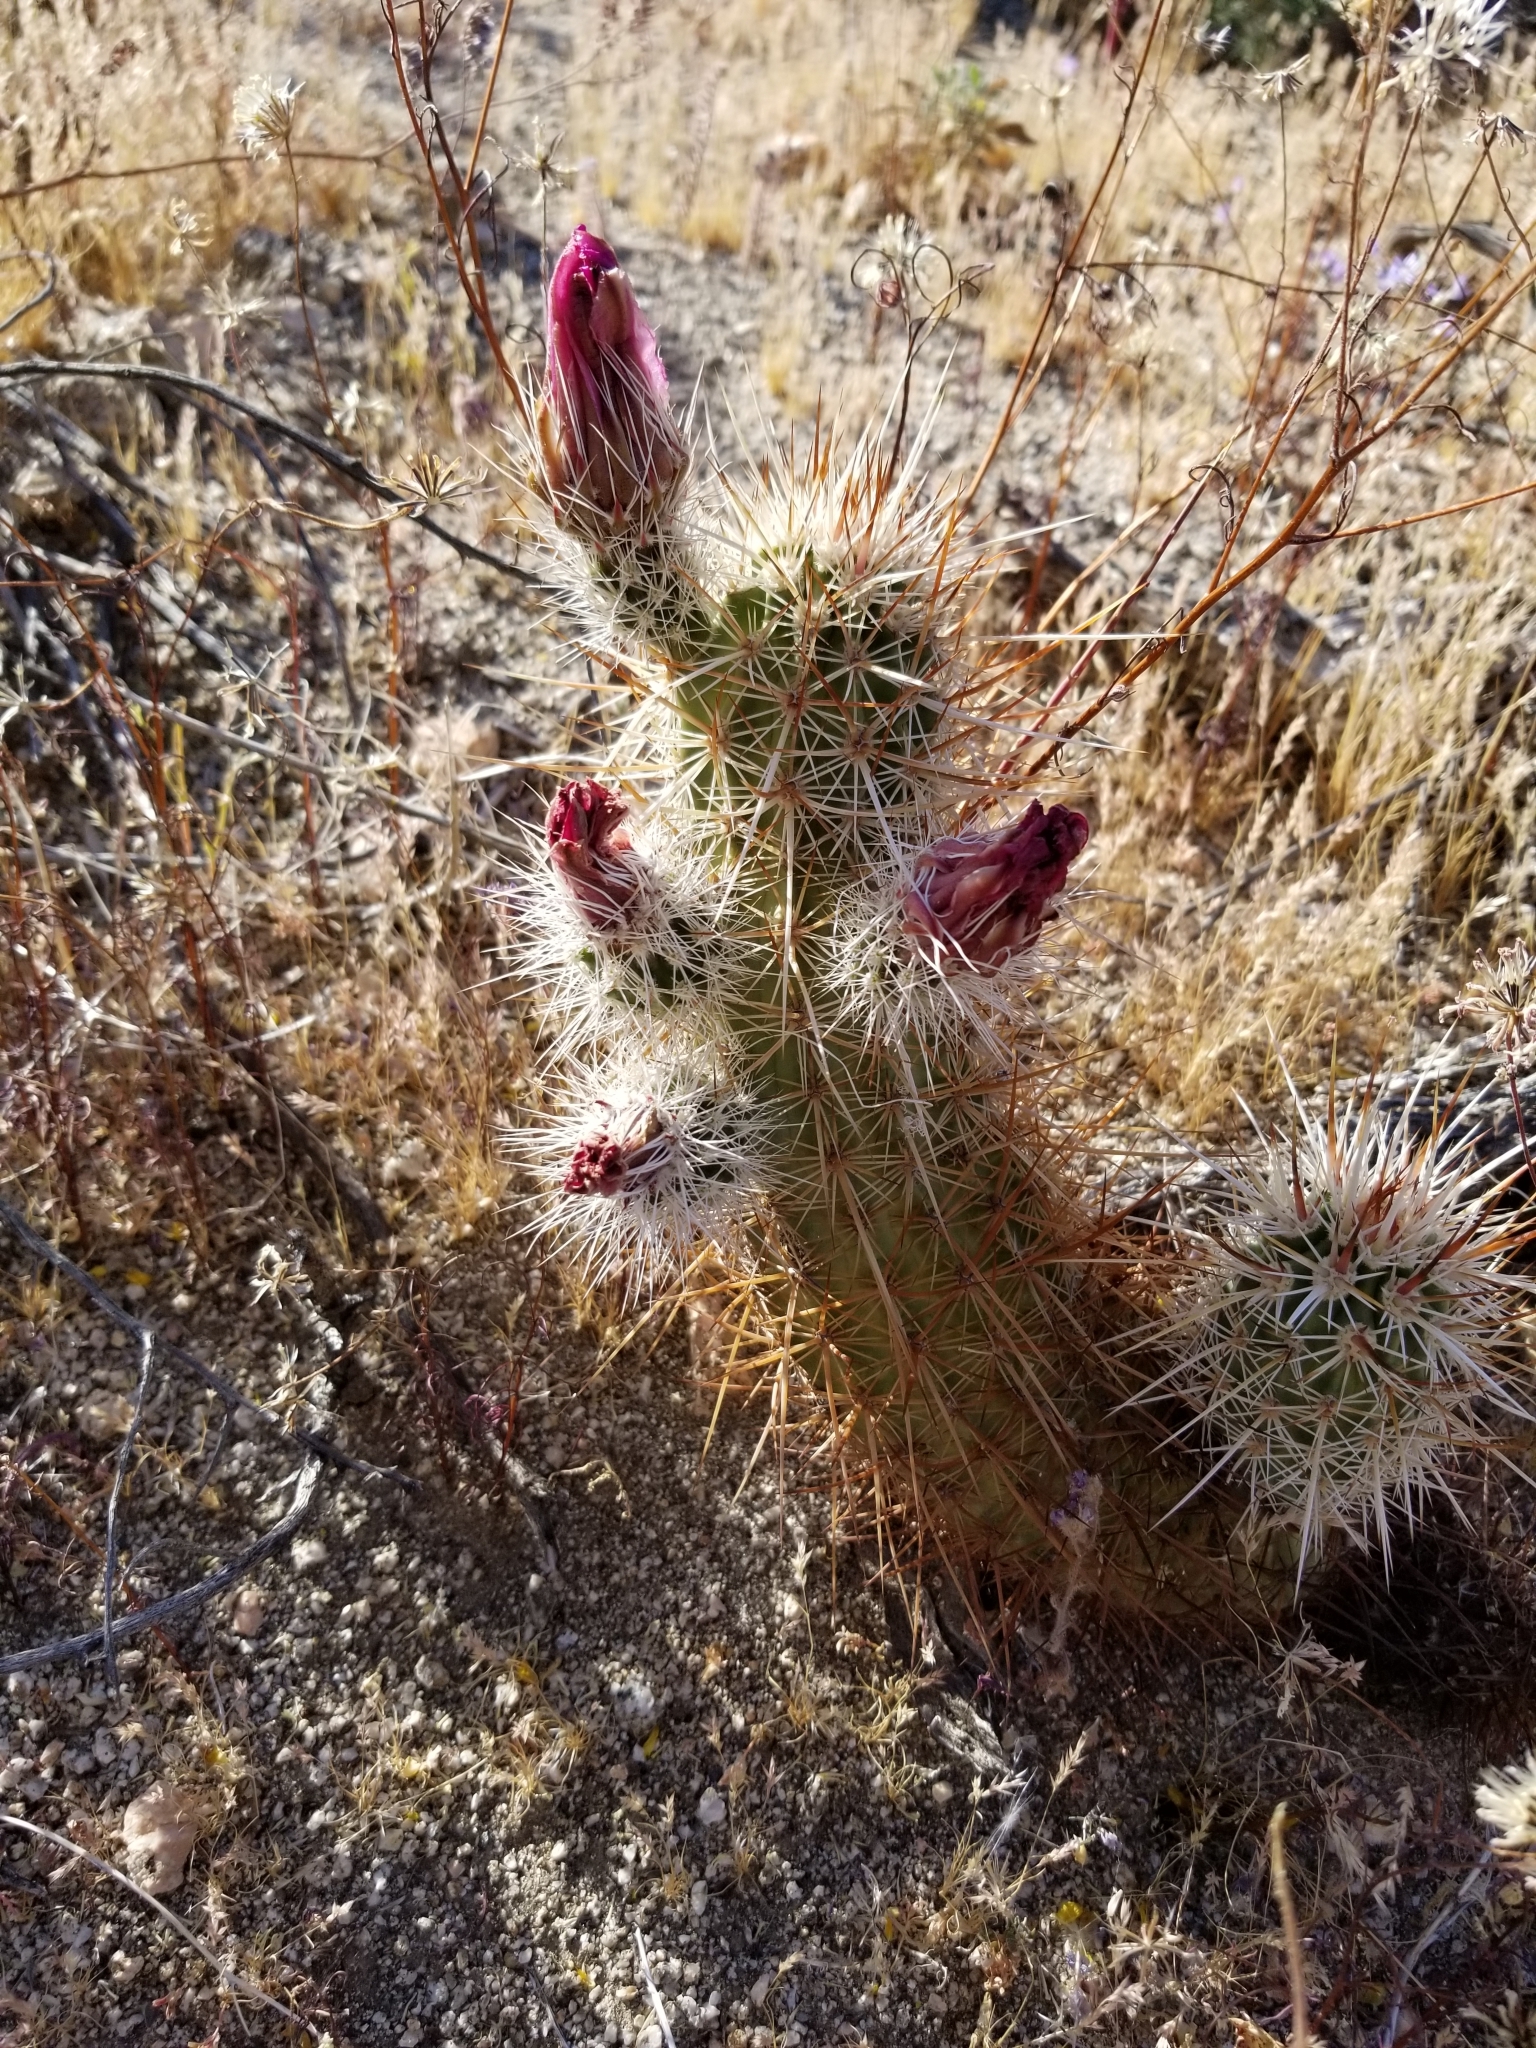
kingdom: Plantae
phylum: Tracheophyta
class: Magnoliopsida
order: Caryophyllales
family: Cactaceae
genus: Echinocereus
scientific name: Echinocereus engelmannii
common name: Engelmann's hedgehog cactus
